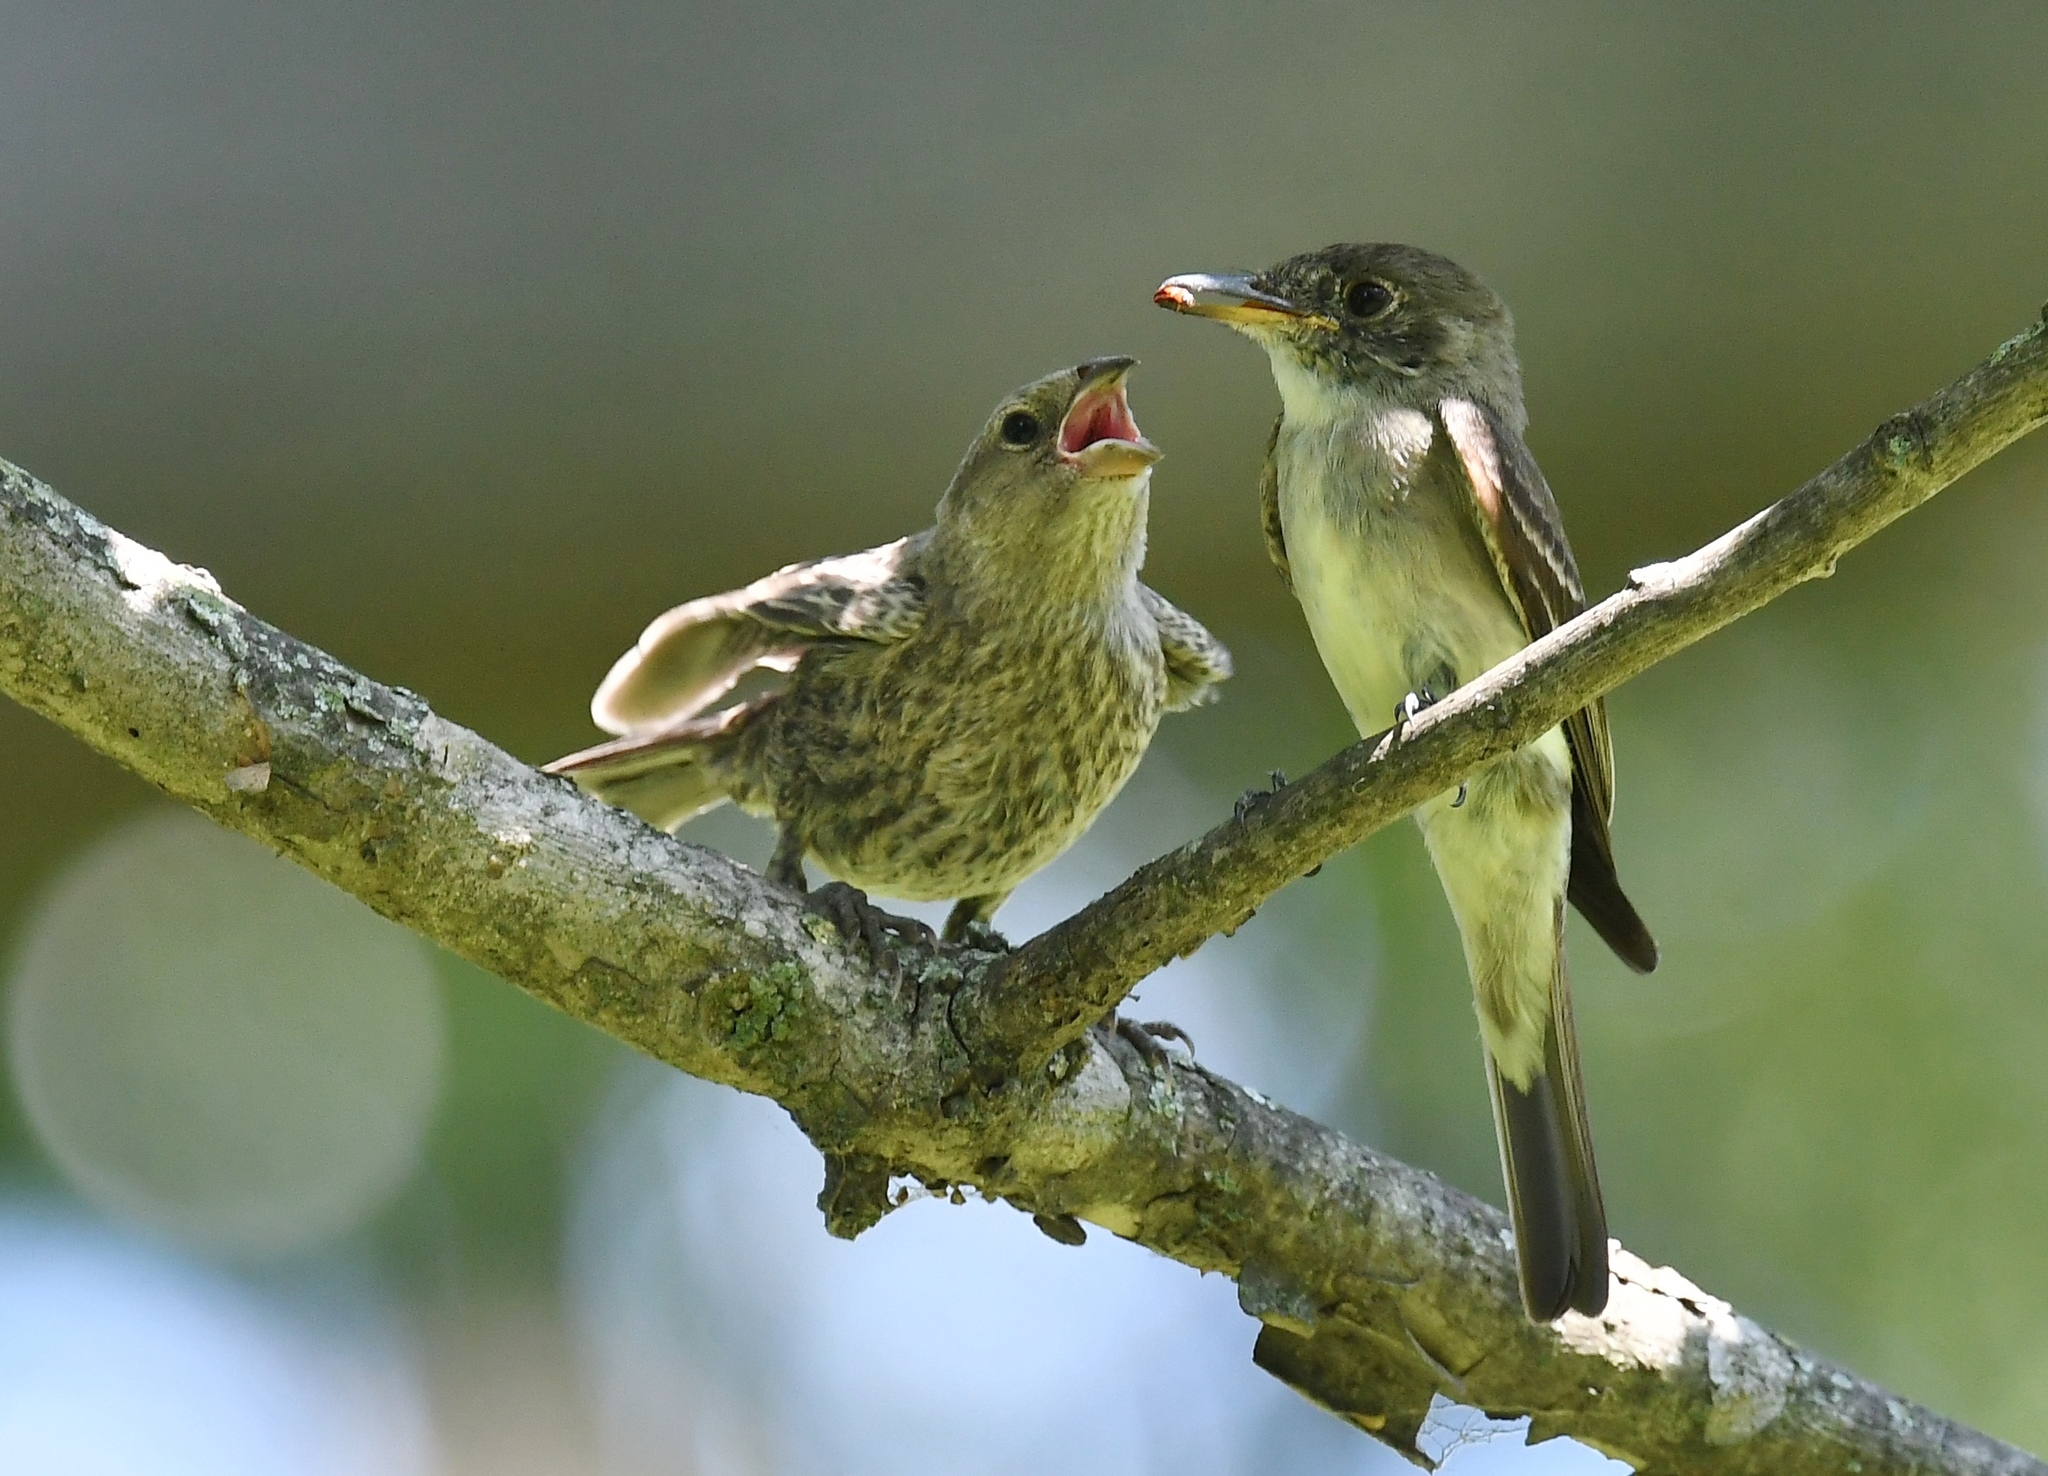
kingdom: Animalia
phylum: Chordata
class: Aves
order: Passeriformes
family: Tyrannidae
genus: Contopus
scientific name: Contopus virens
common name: Eastern wood-pewee
